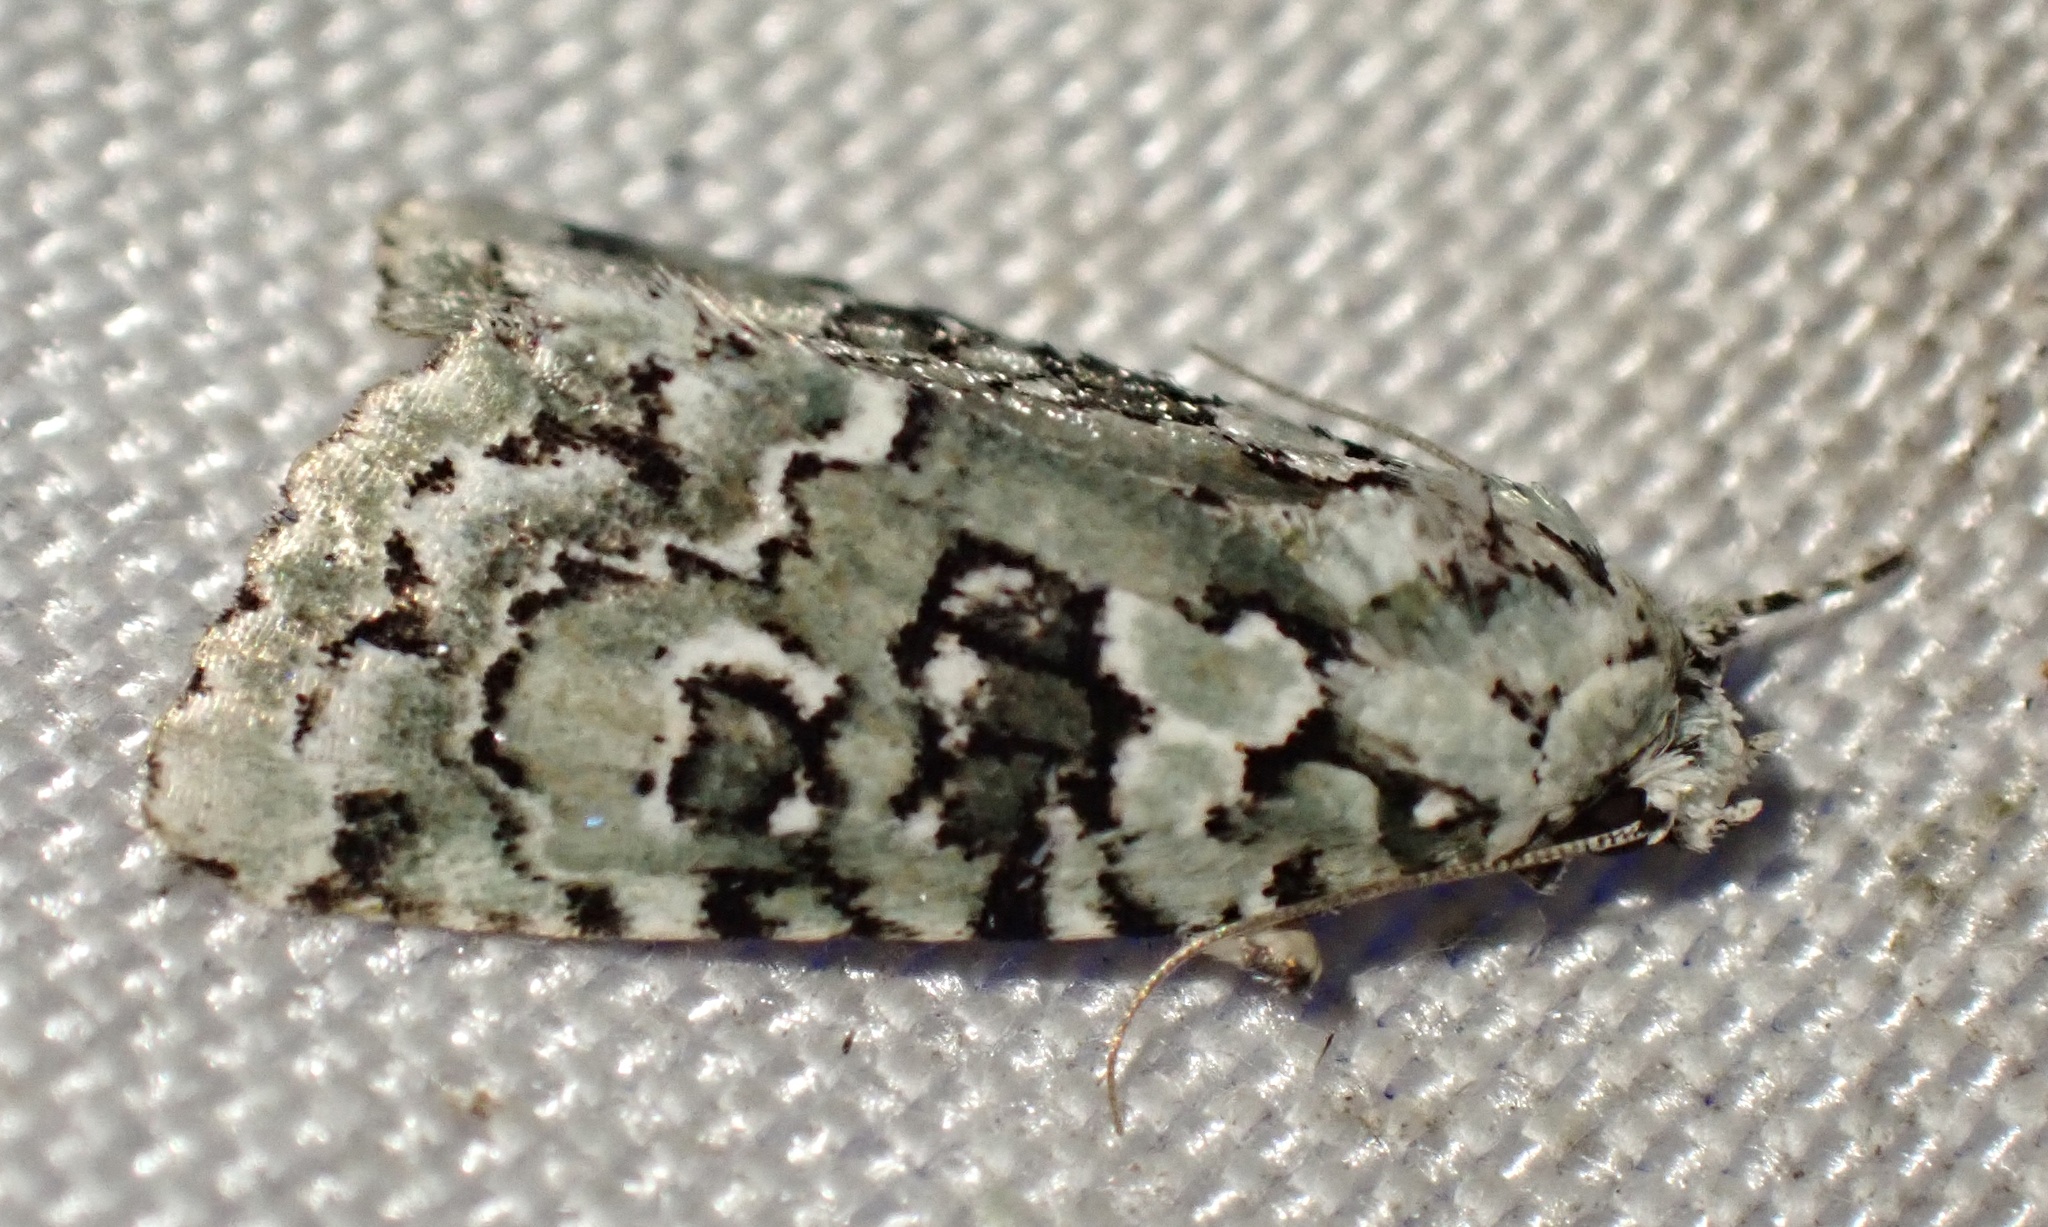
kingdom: Animalia
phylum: Arthropoda
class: Insecta
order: Lepidoptera
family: Noctuidae
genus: Nyctobrya
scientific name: Nyctobrya muralis
